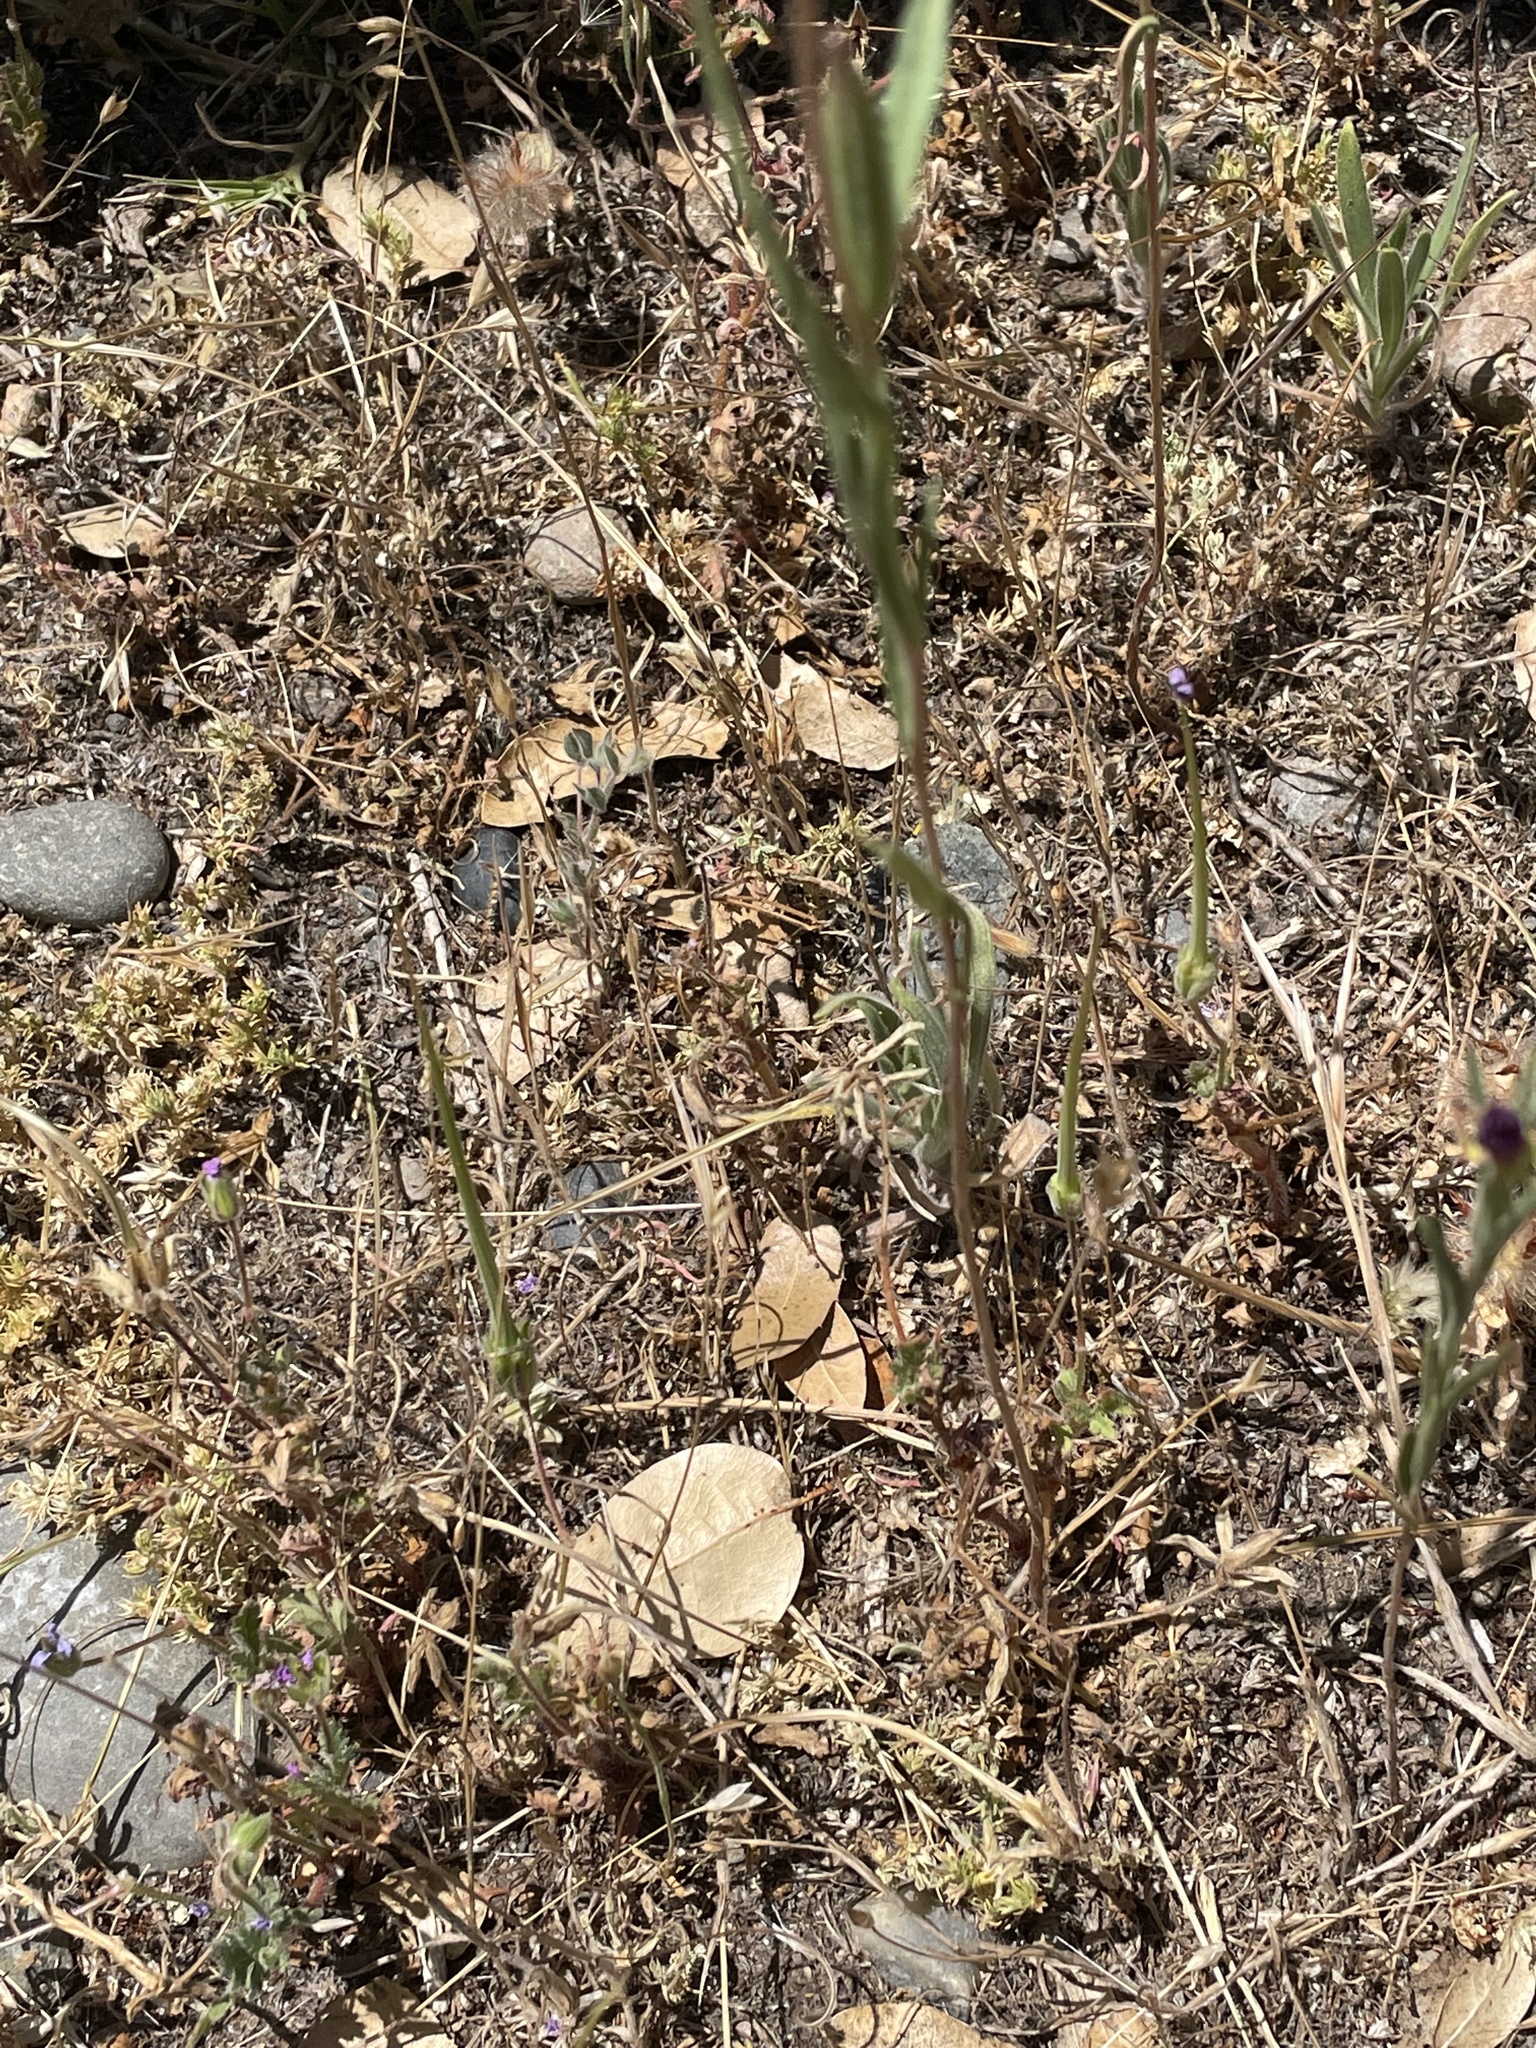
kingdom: Plantae
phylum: Tracheophyta
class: Magnoliopsida
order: Myrtales
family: Onagraceae
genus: Clarkia
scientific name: Clarkia purpurea
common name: Purple clarkia
